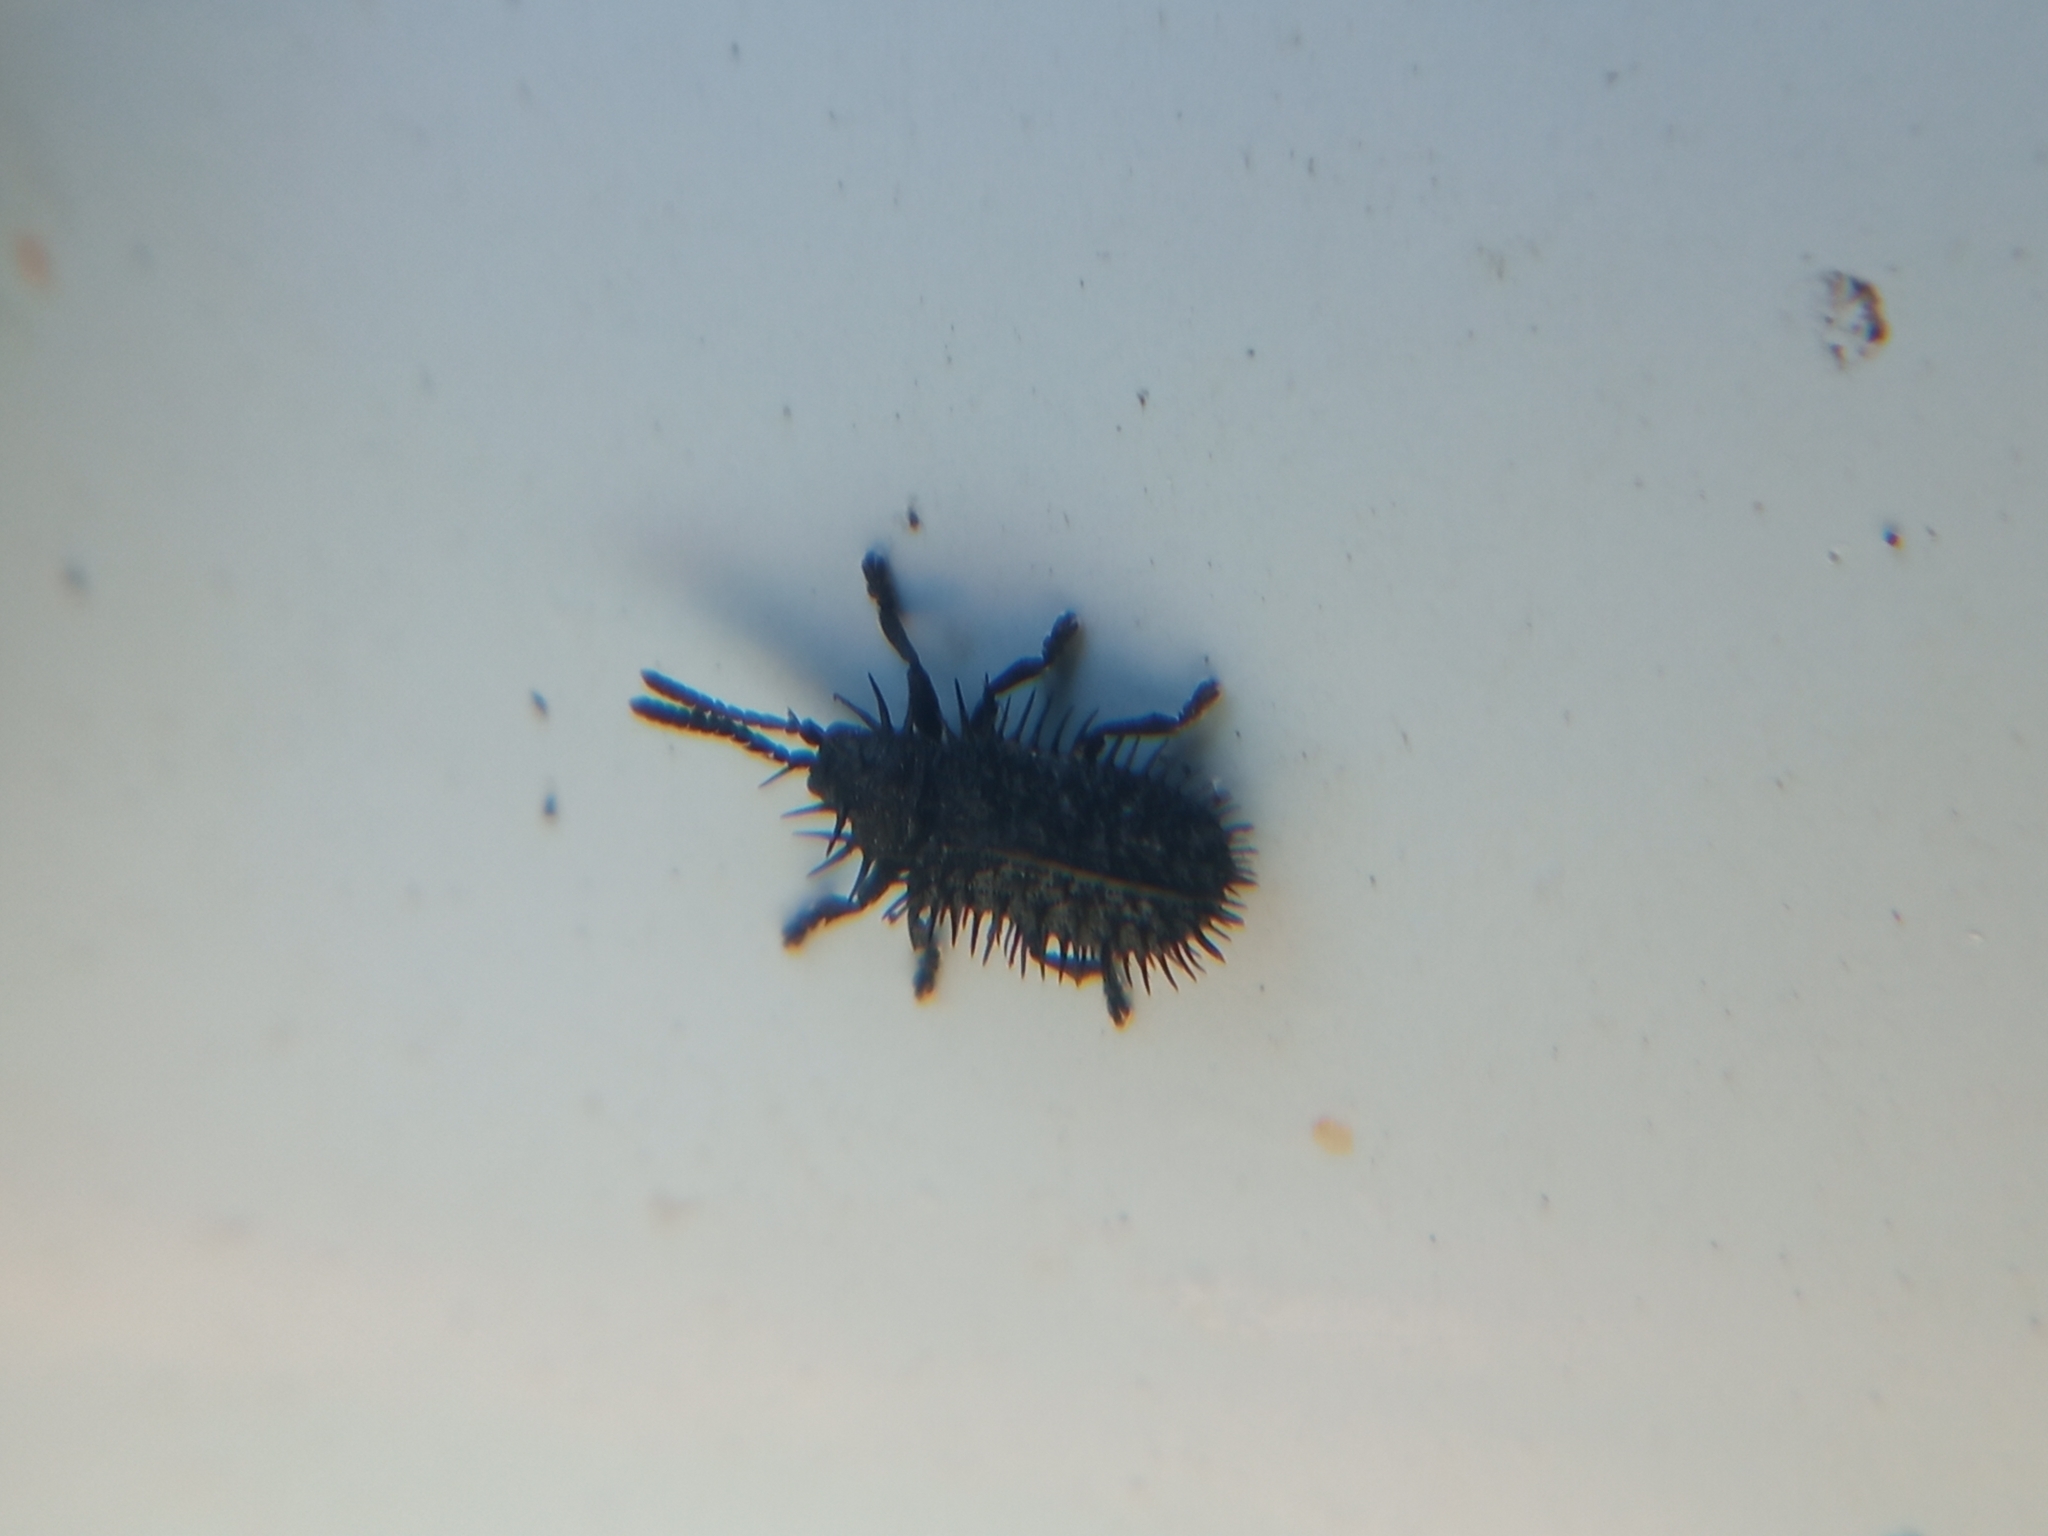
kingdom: Animalia
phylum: Arthropoda
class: Insecta
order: Coleoptera
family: Chrysomelidae
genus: Hispa
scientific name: Hispa atra
